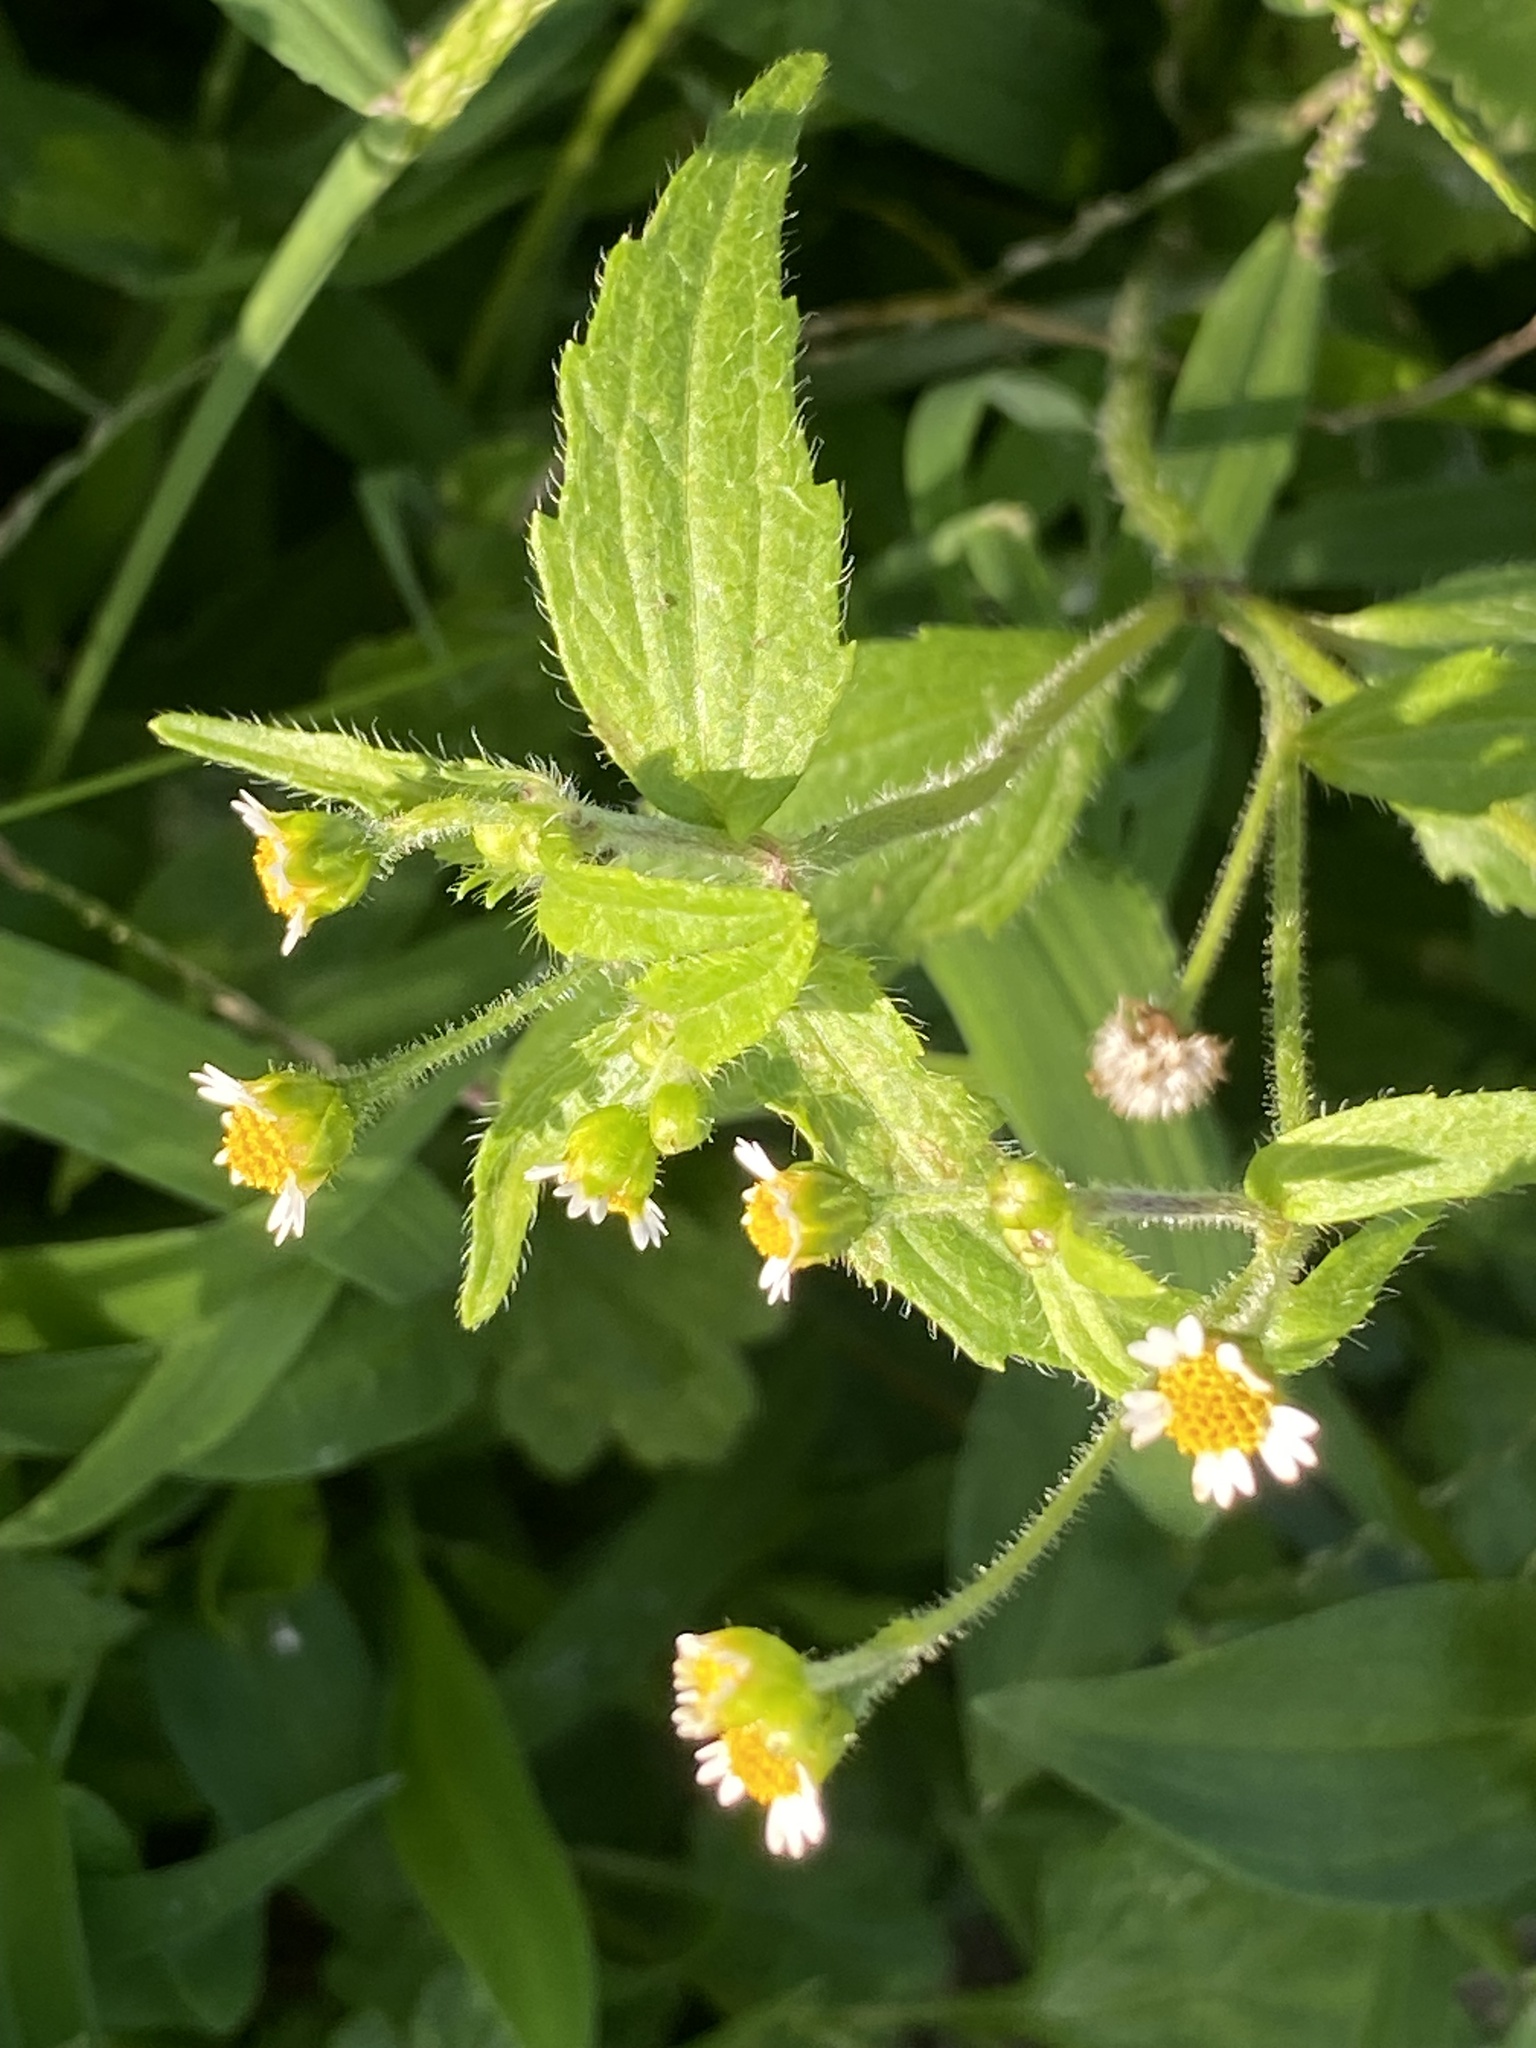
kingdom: Plantae
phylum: Tracheophyta
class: Magnoliopsida
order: Asterales
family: Asteraceae
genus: Galinsoga
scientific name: Galinsoga quadriradiata
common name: Shaggy soldier
